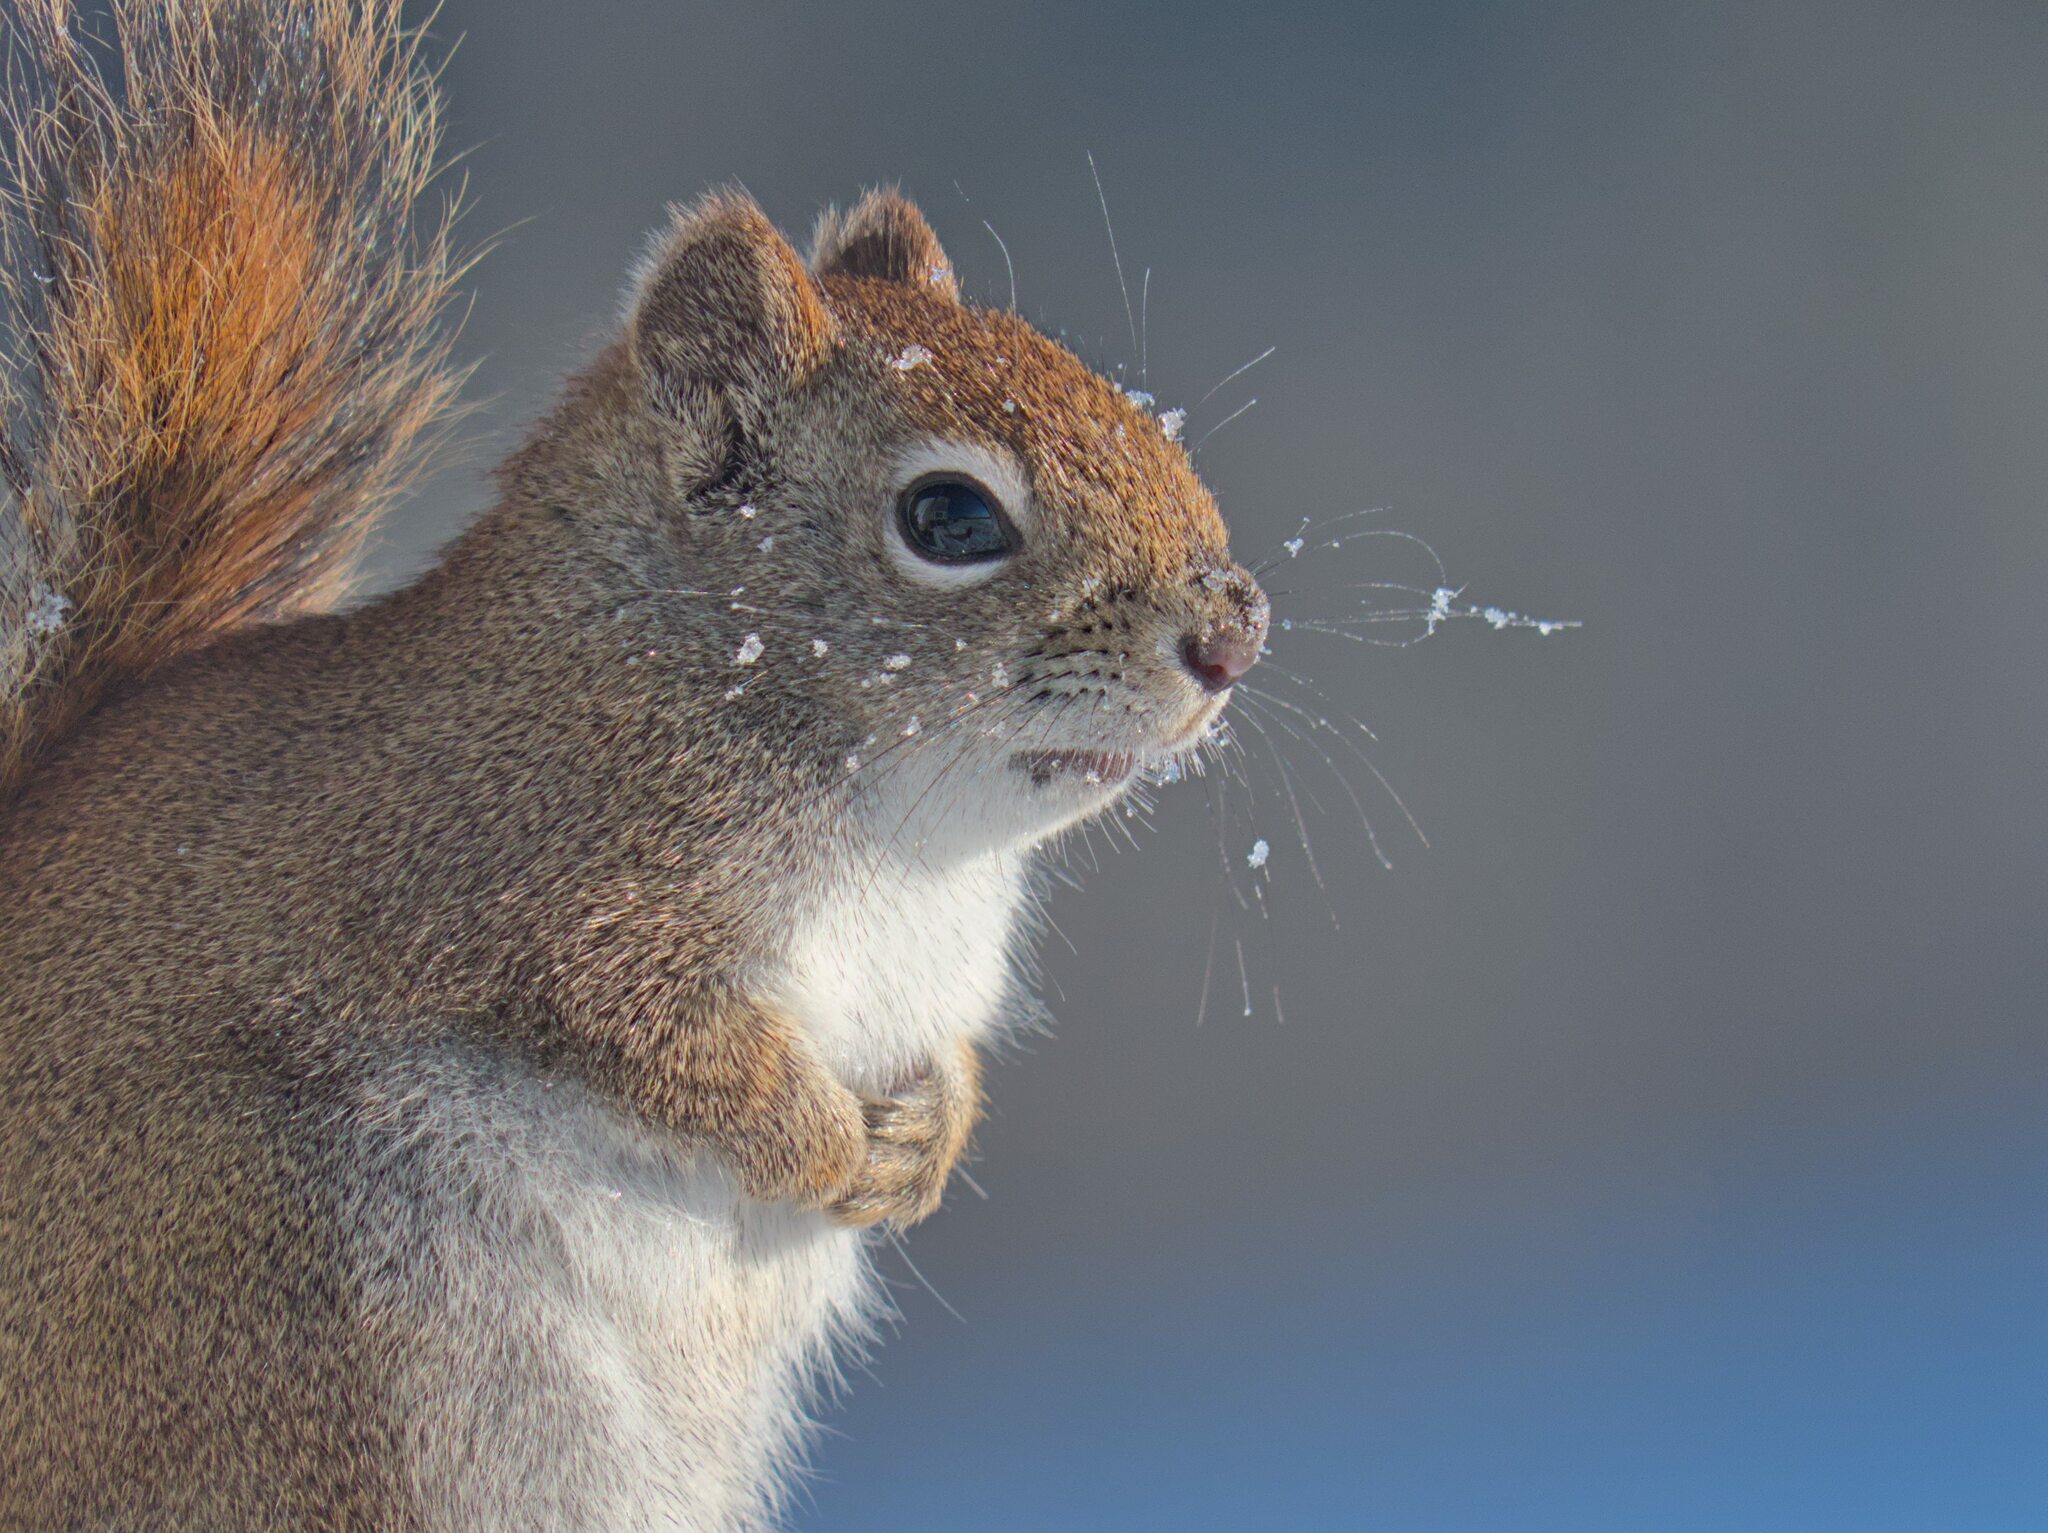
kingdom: Animalia
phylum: Chordata
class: Mammalia
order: Rodentia
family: Sciuridae
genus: Tamiasciurus
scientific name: Tamiasciurus hudsonicus
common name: Red squirrel
